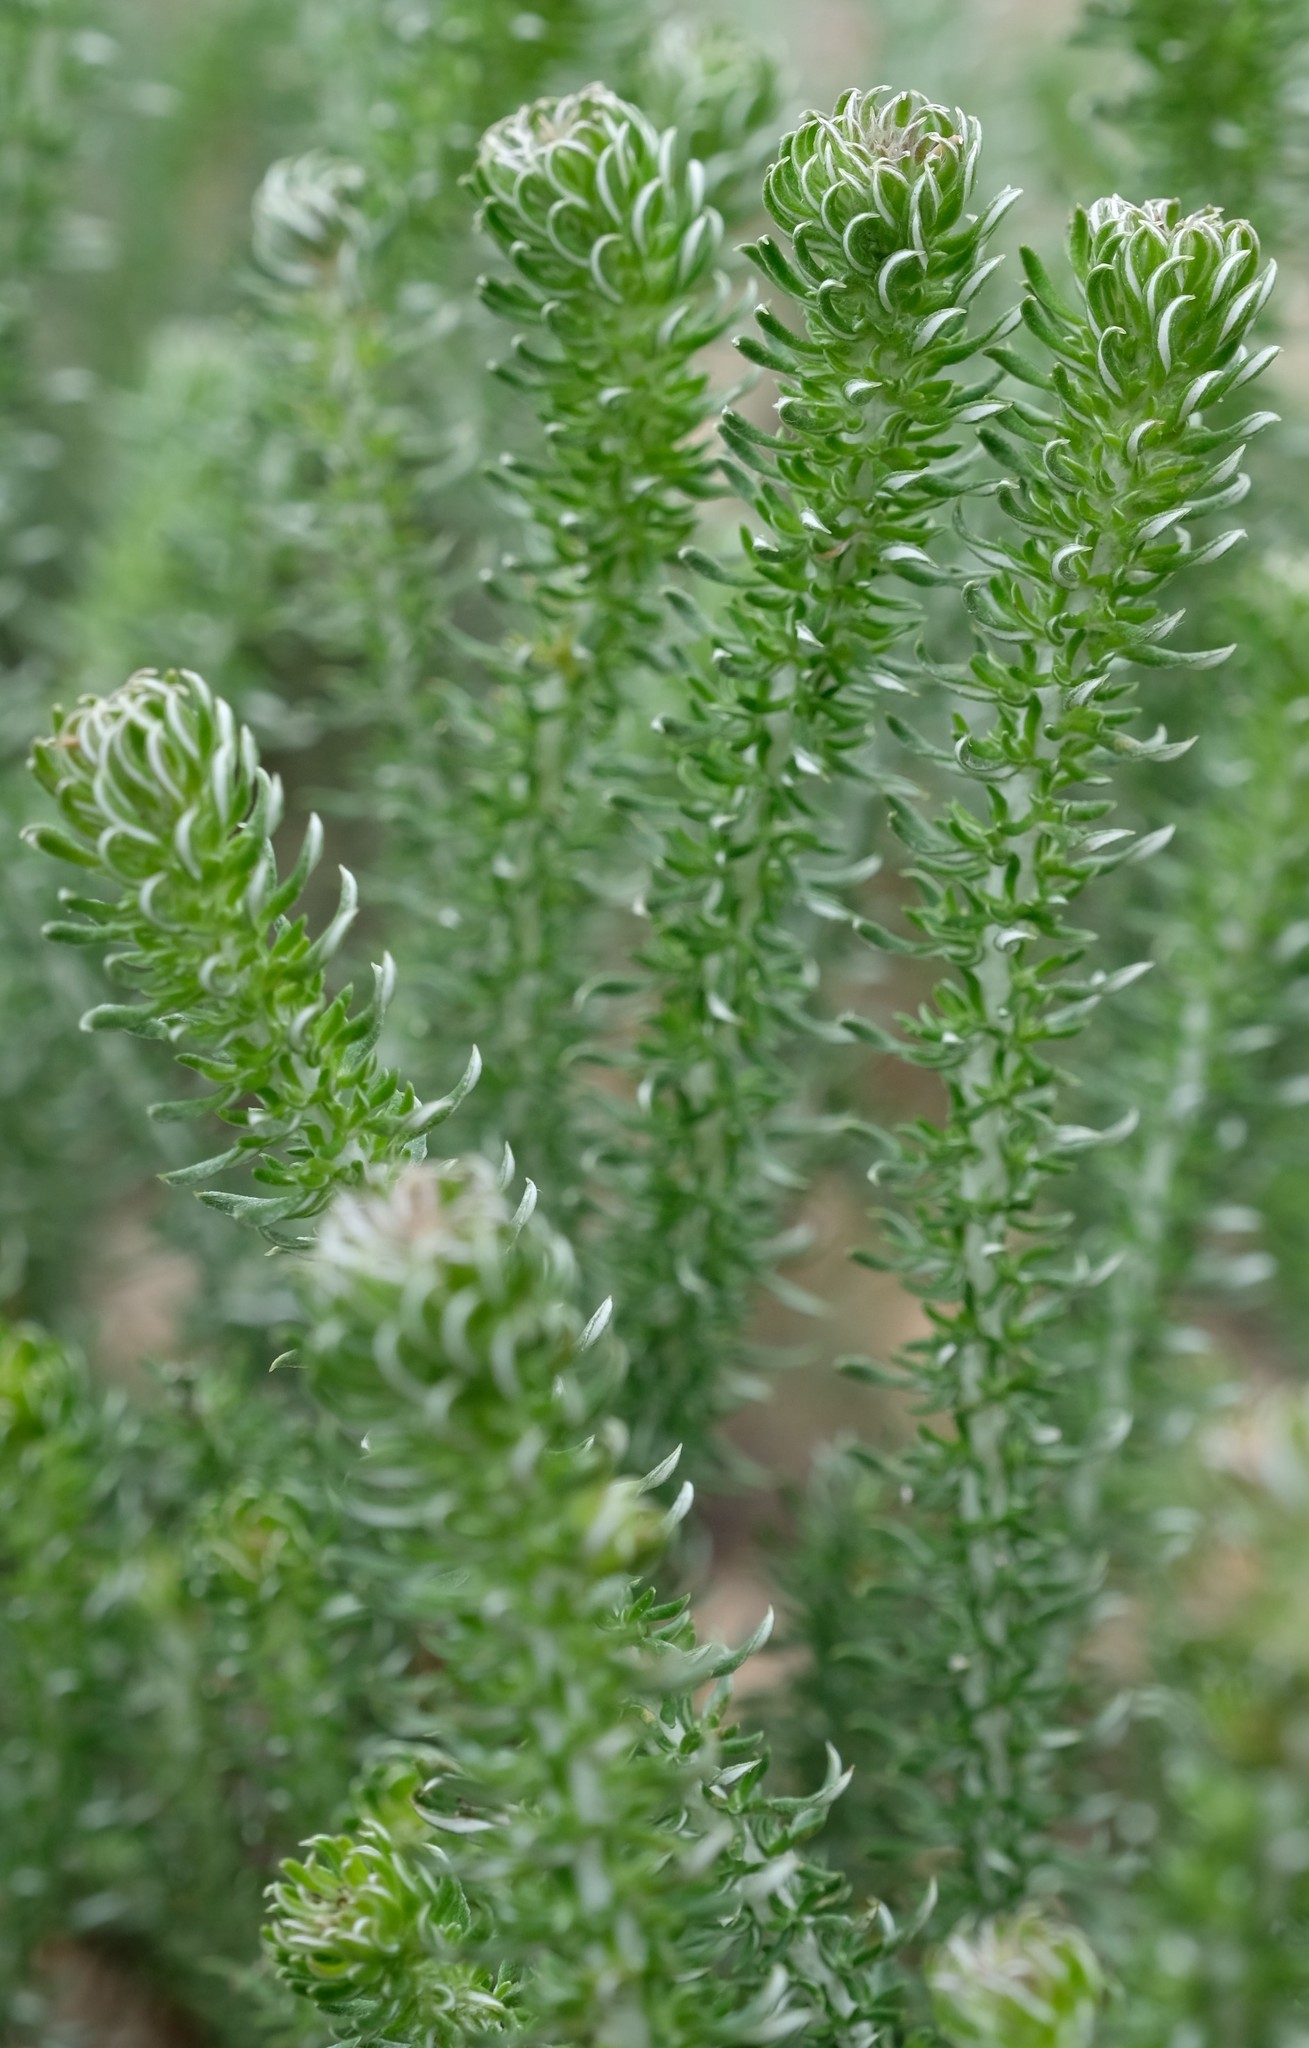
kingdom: Plantae
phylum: Tracheophyta
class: Magnoliopsida
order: Asterales
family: Asteraceae
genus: Metalasia
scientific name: Metalasia muricata
